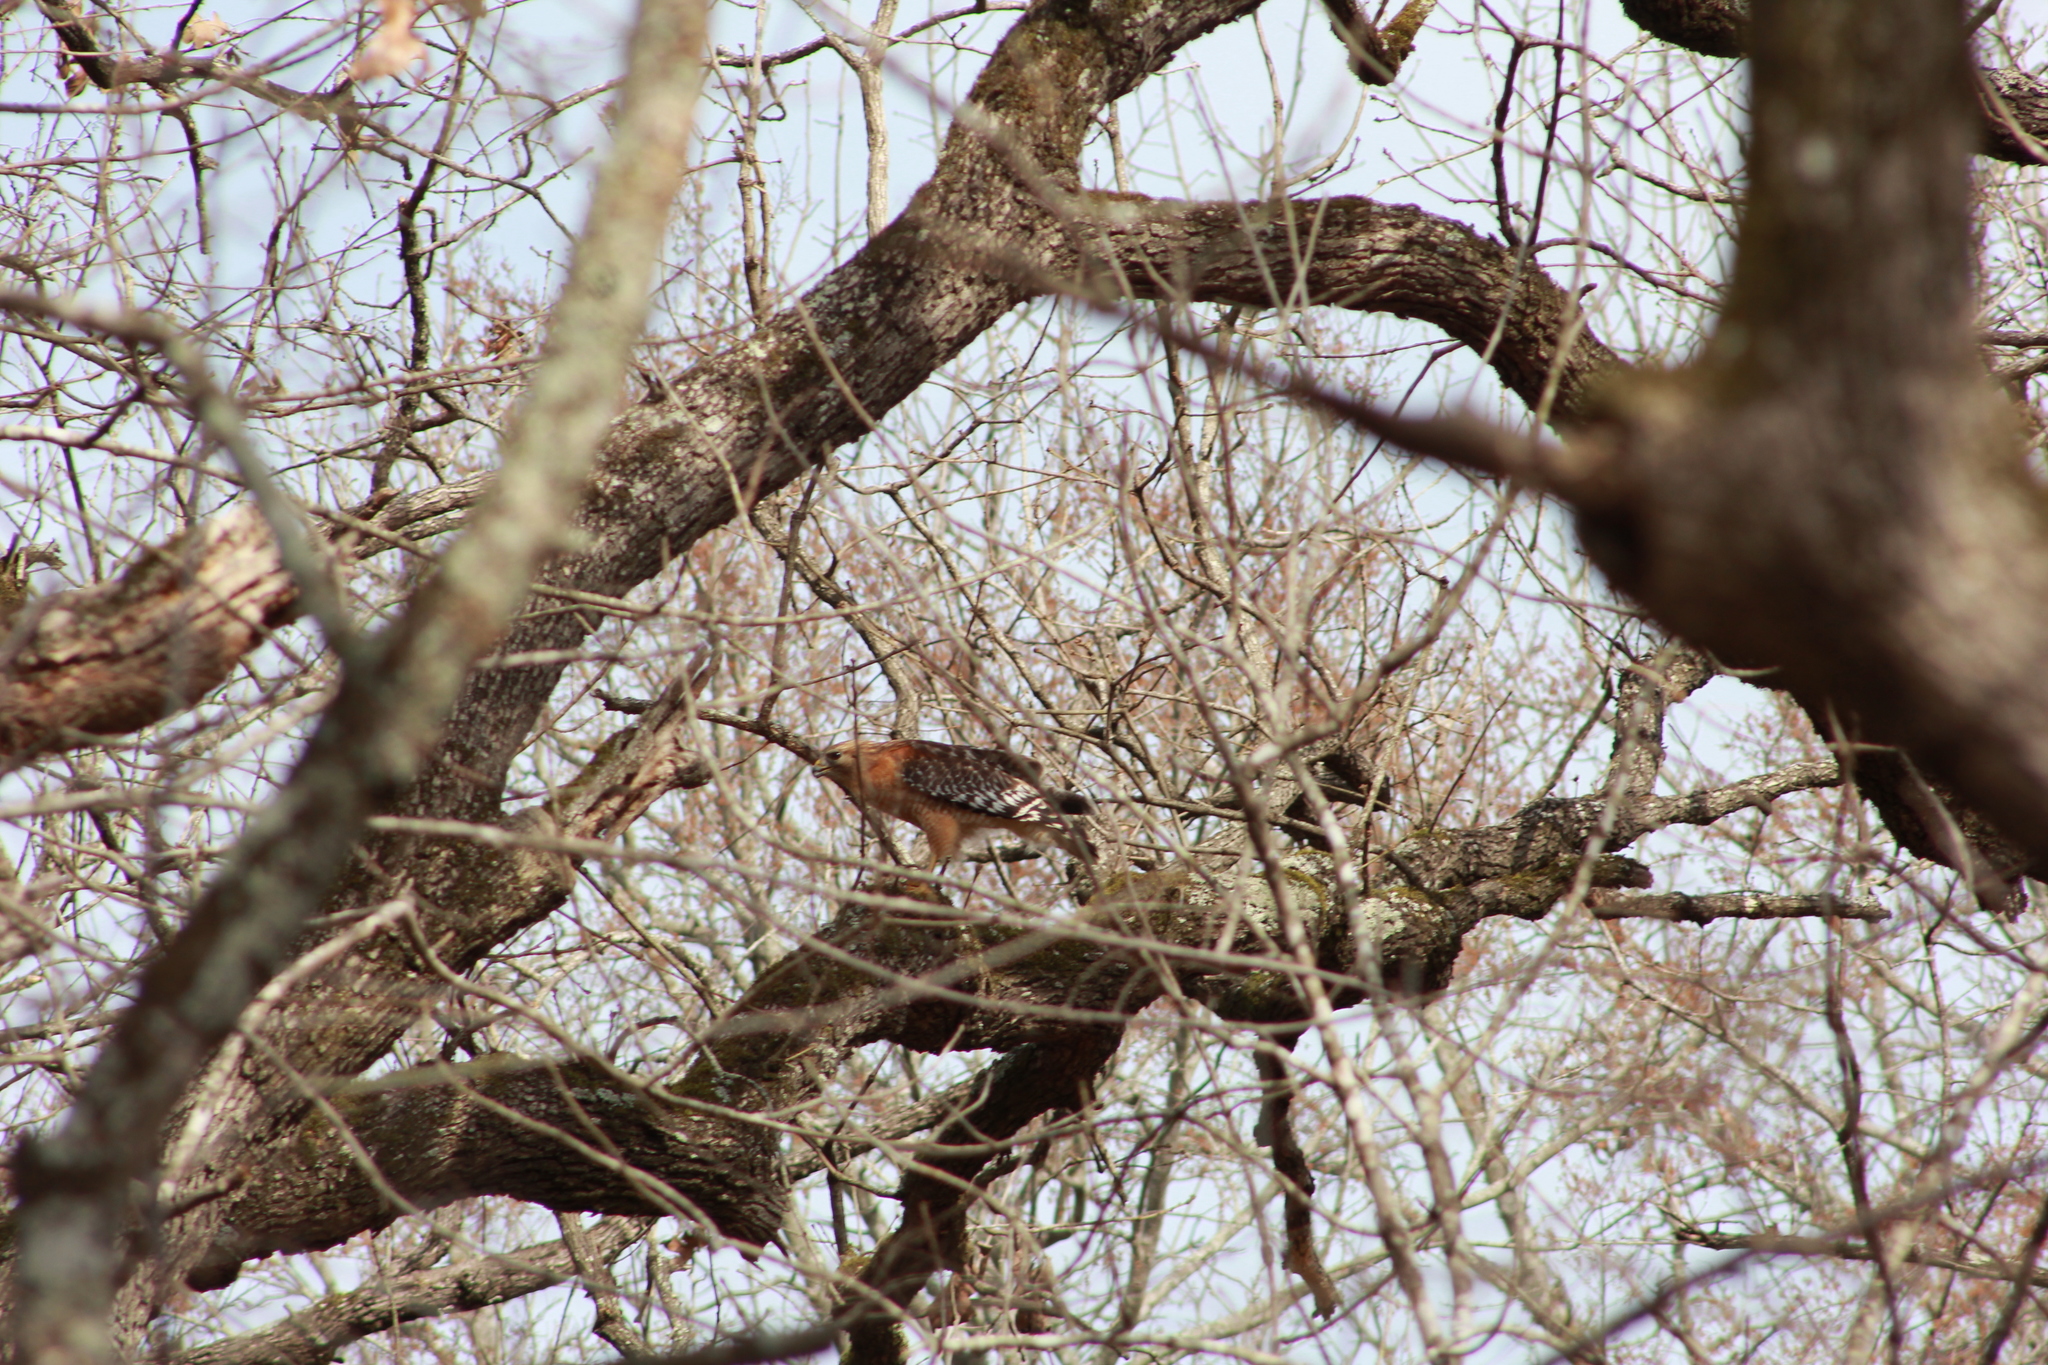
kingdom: Animalia
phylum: Chordata
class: Aves
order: Accipitriformes
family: Accipitridae
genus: Buteo
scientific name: Buteo lineatus
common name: Red-shouldered hawk
